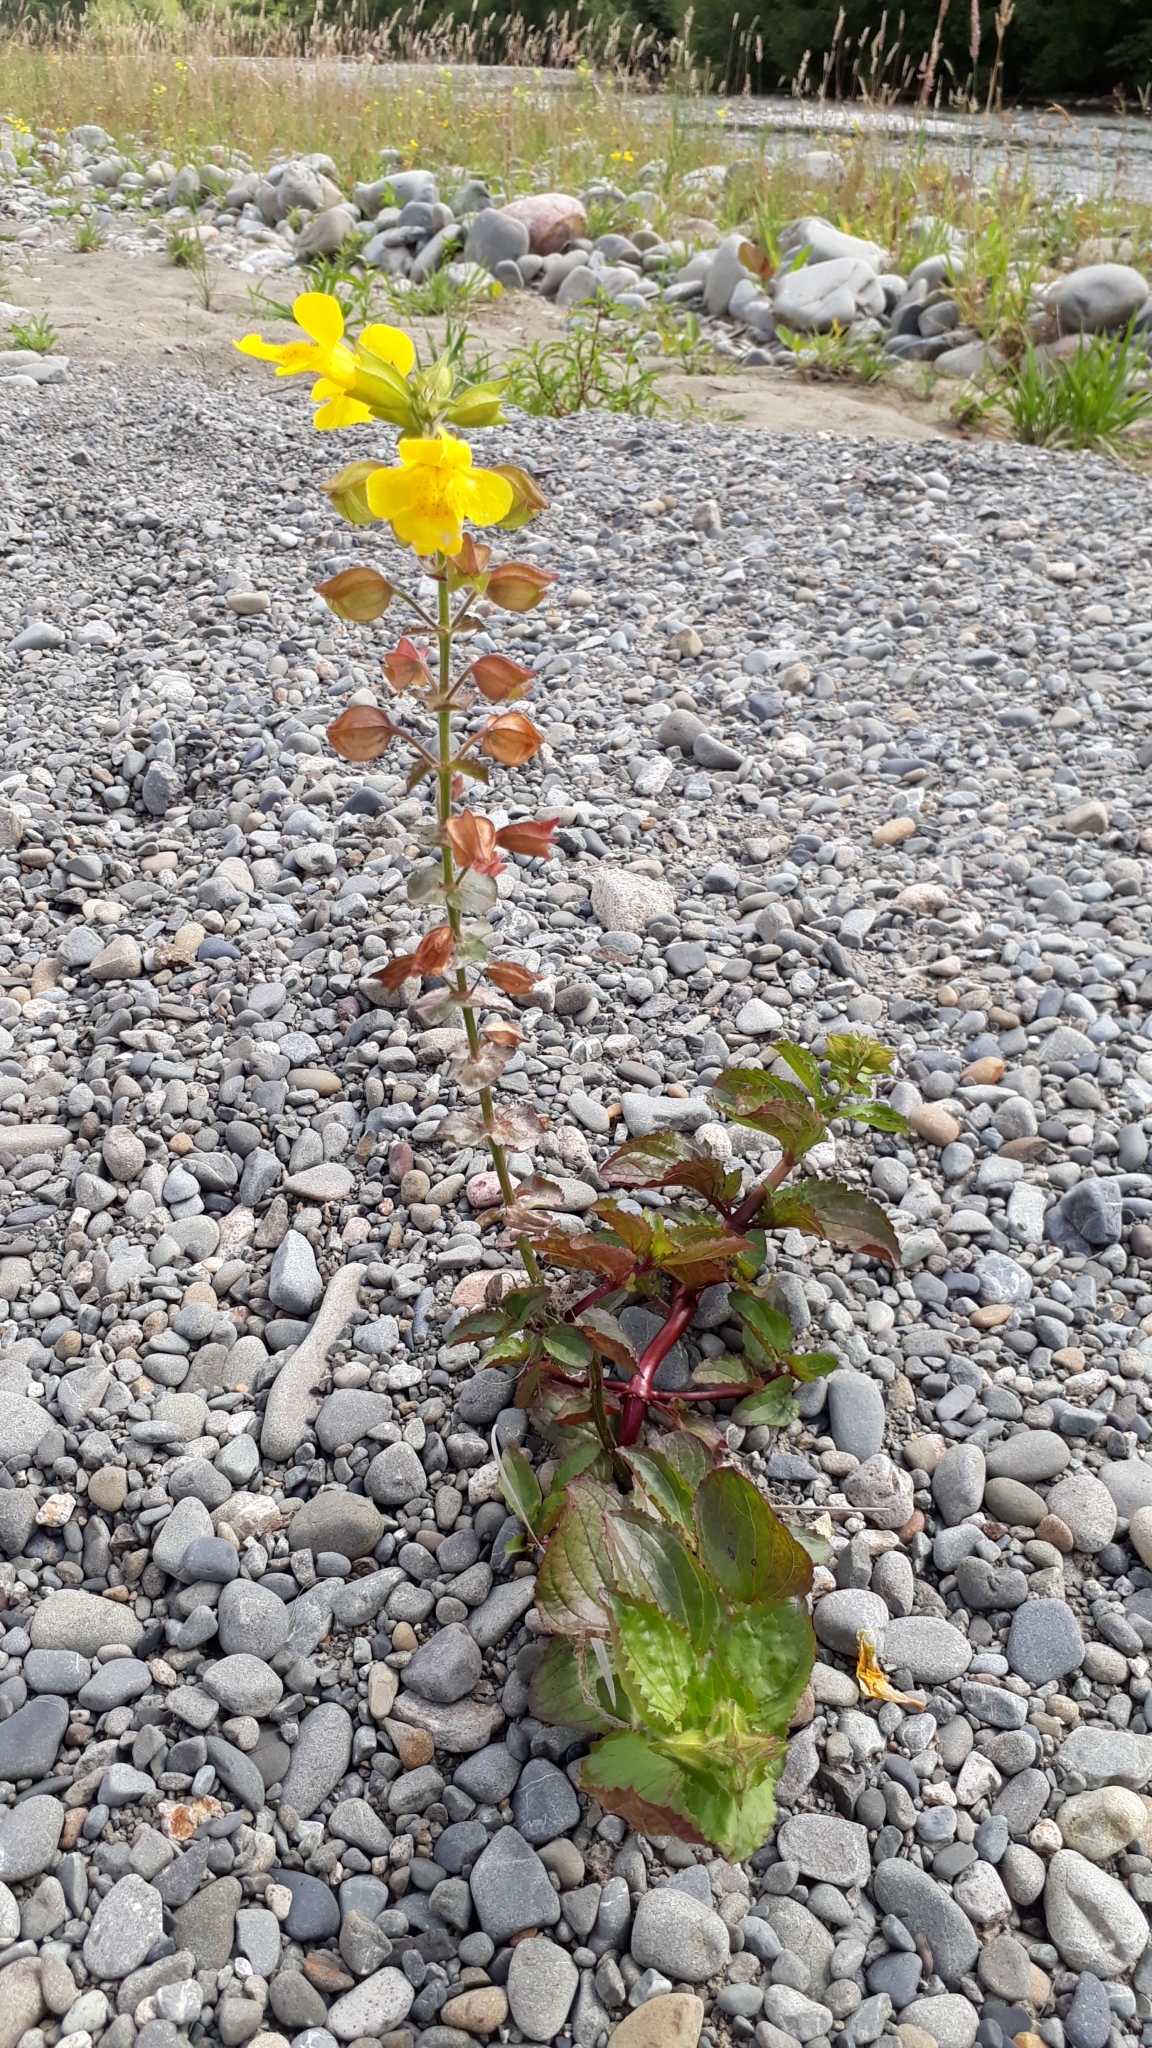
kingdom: Plantae
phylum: Tracheophyta
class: Magnoliopsida
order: Lamiales
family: Phrymaceae
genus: Erythranthe
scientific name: Erythranthe guttata
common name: Monkeyflower
